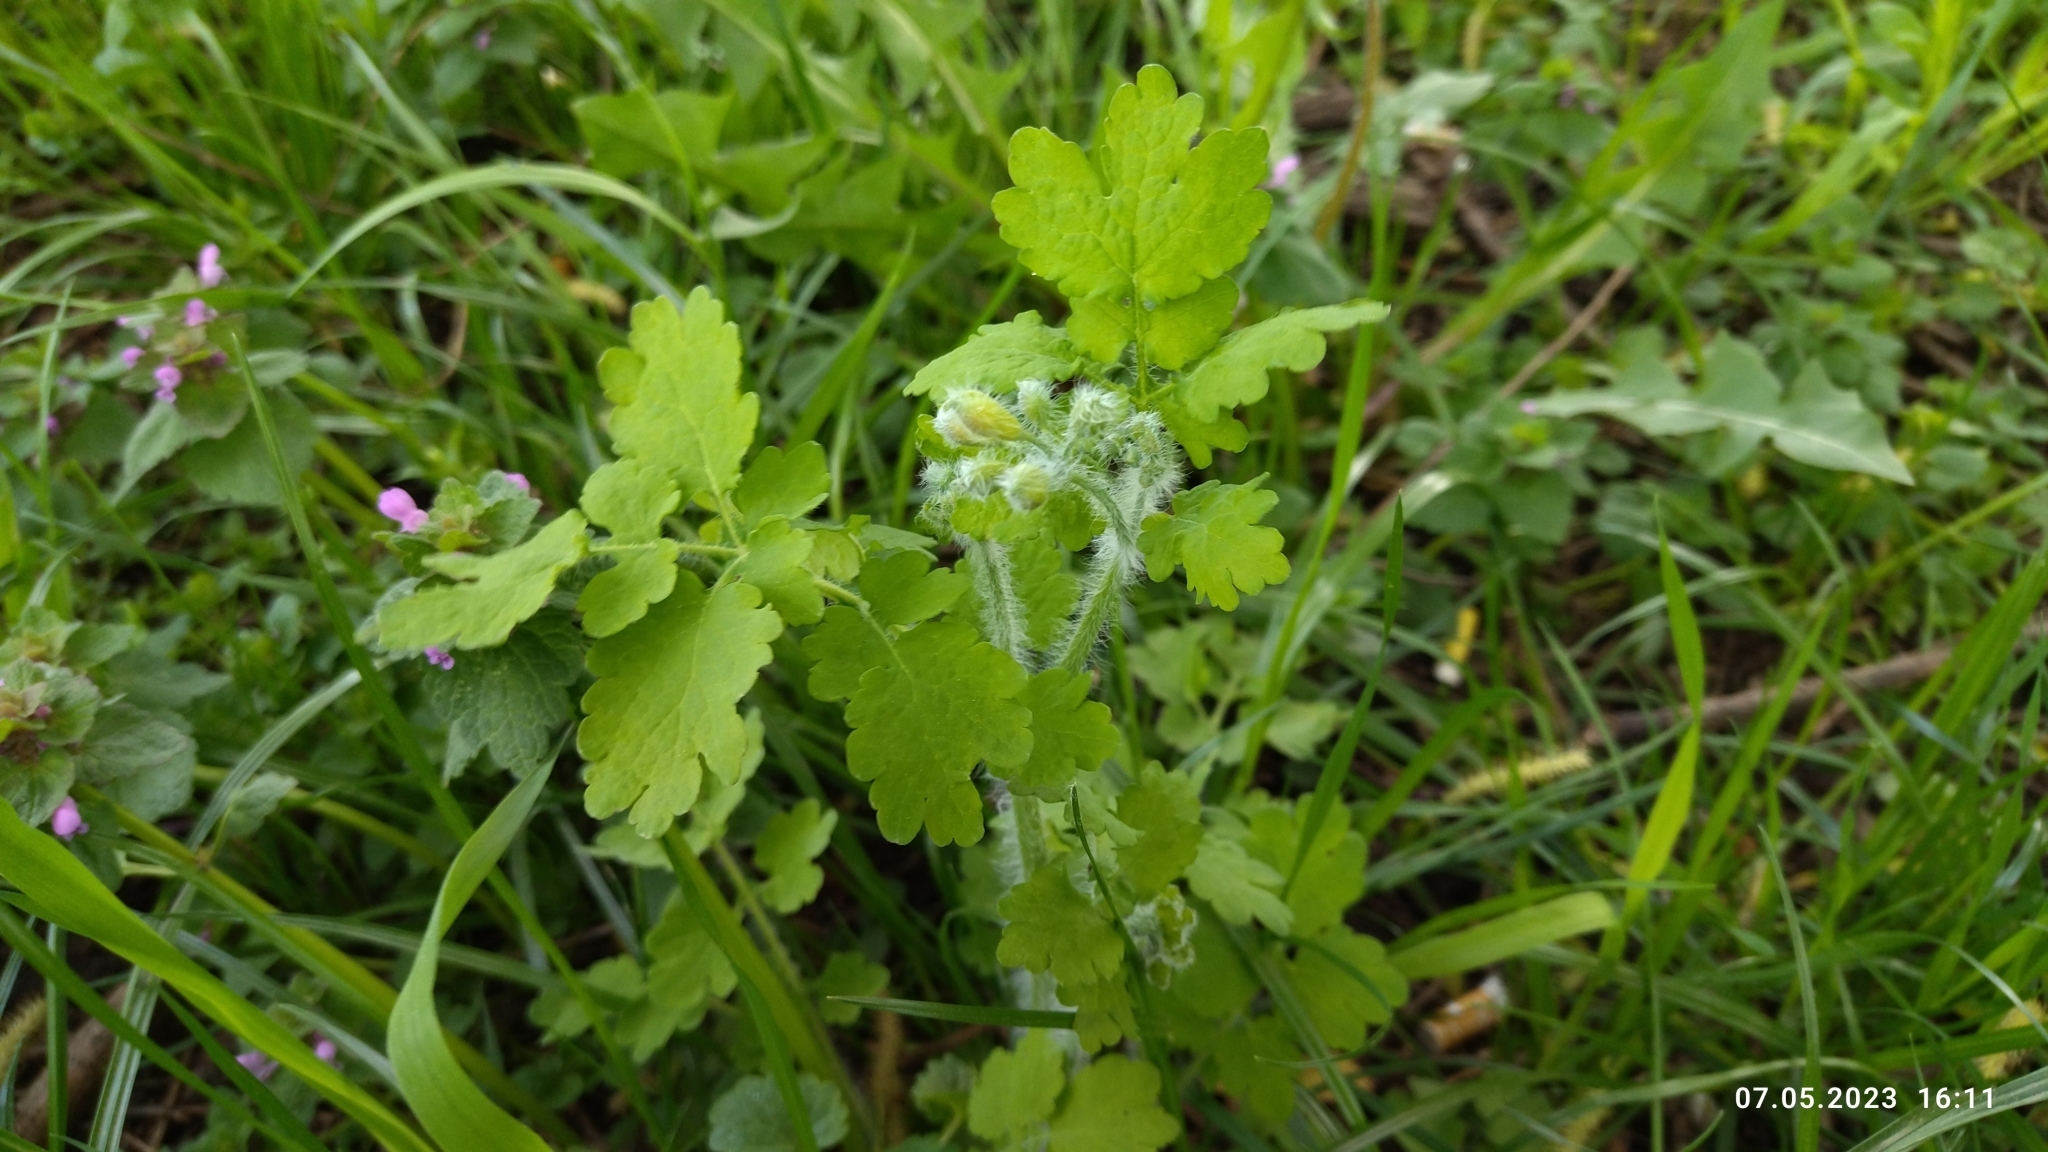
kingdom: Plantae
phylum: Tracheophyta
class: Magnoliopsida
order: Ranunculales
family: Papaveraceae
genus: Chelidonium
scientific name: Chelidonium majus
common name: Greater celandine
